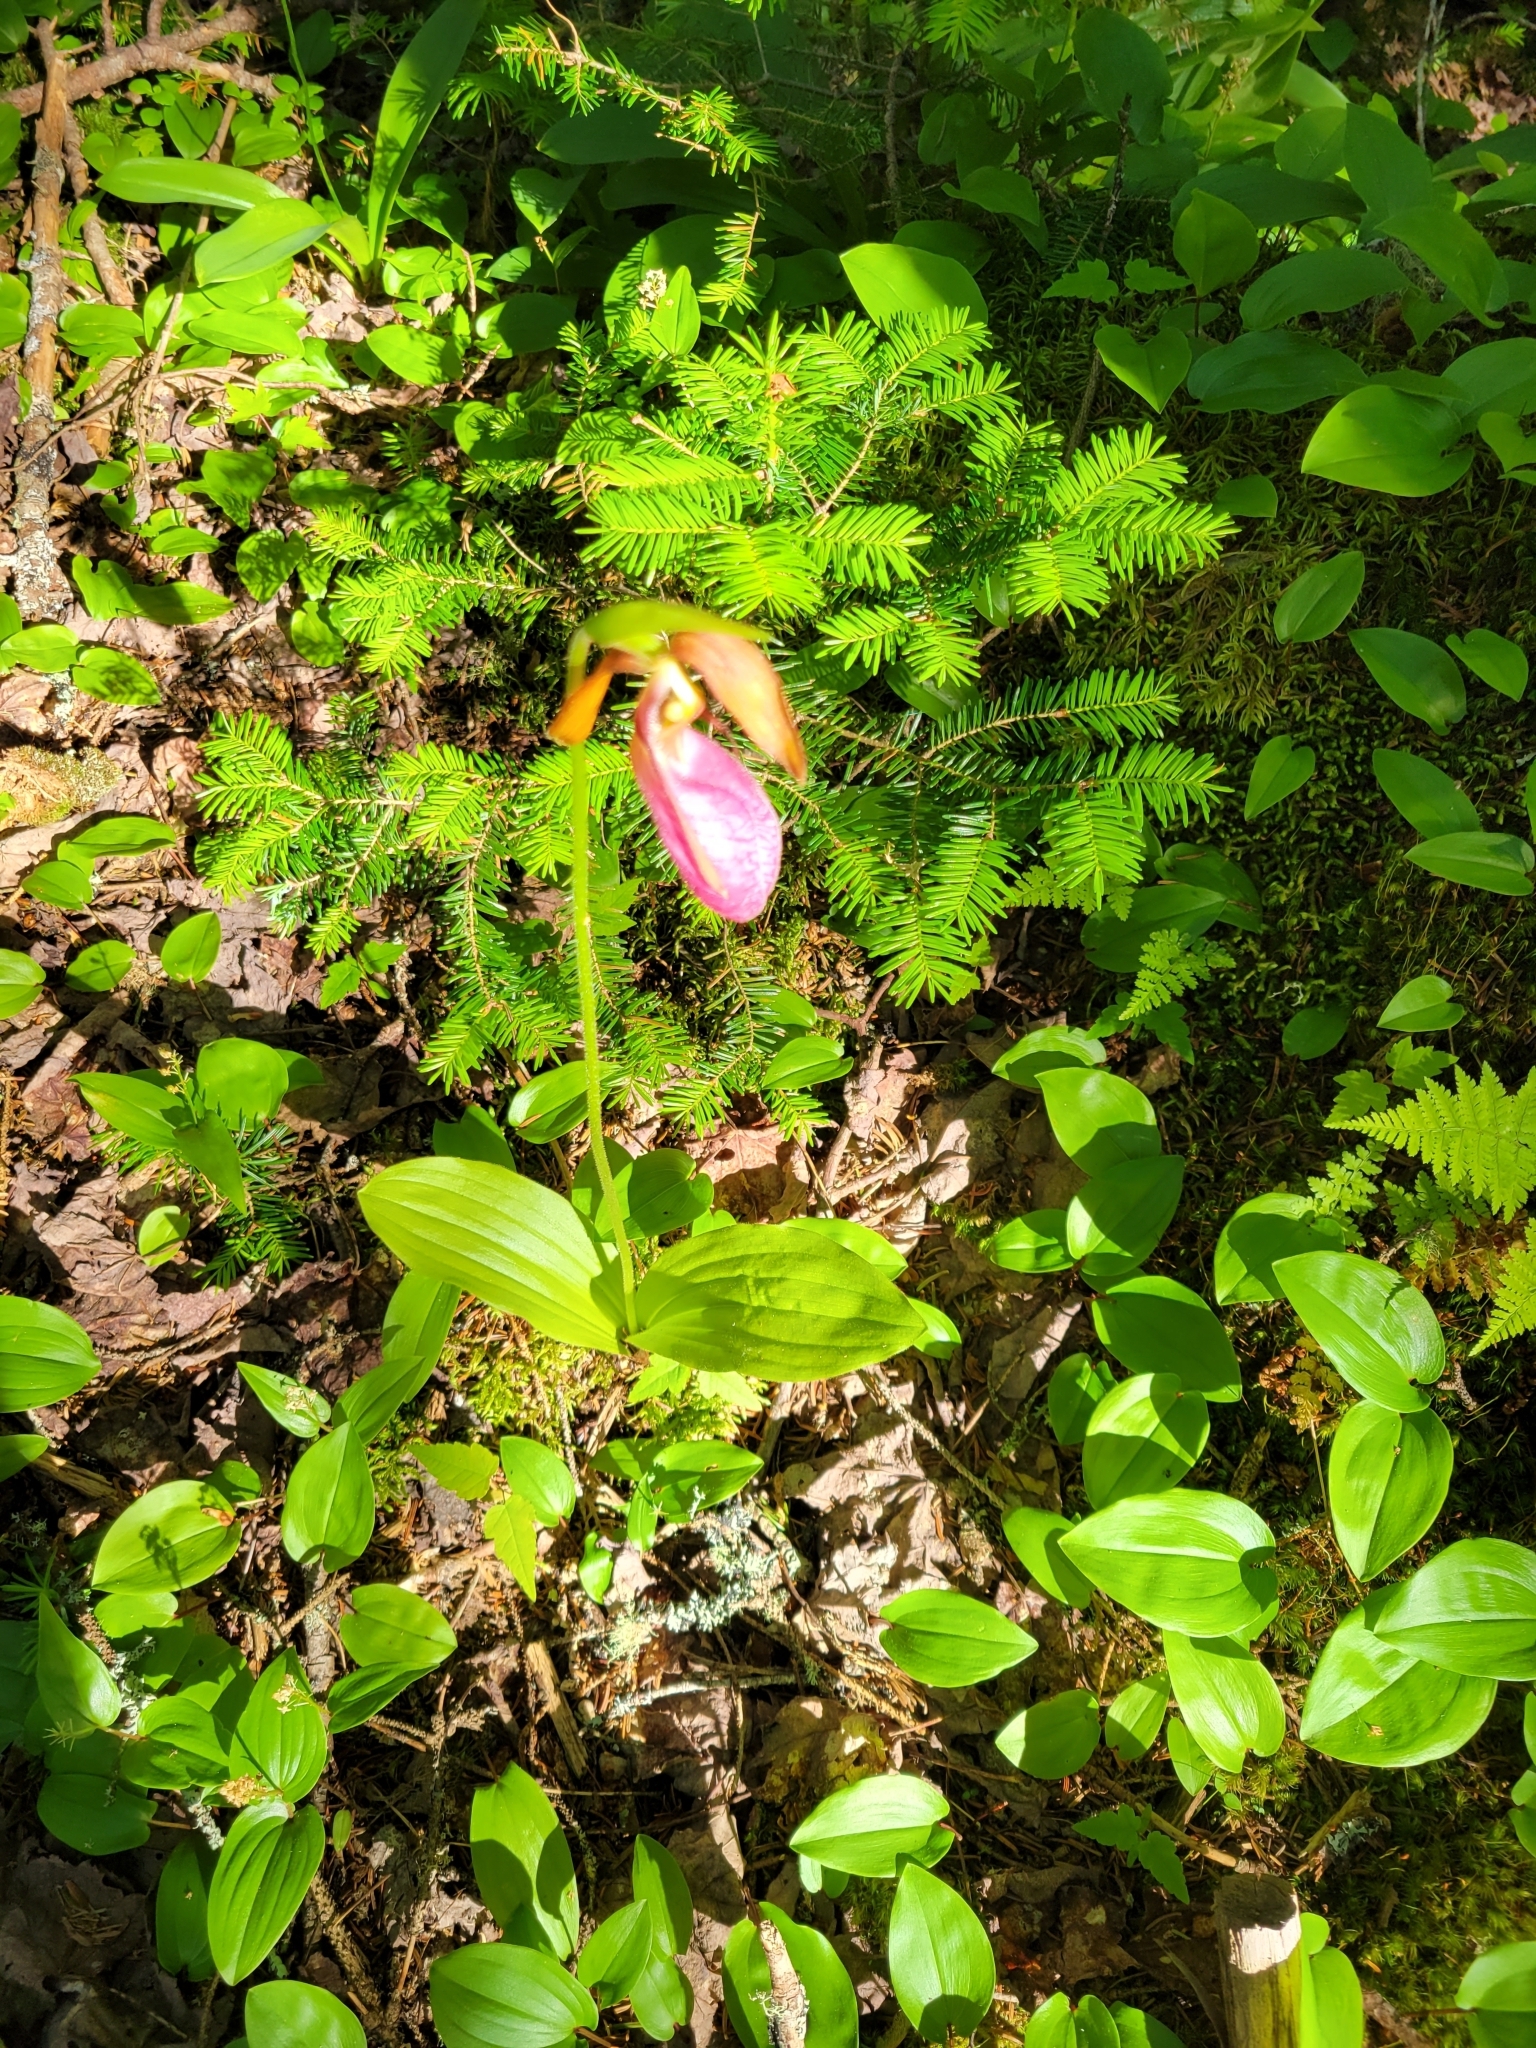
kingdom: Plantae
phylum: Tracheophyta
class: Liliopsida
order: Asparagales
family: Orchidaceae
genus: Cypripedium
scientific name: Cypripedium acaule
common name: Pink lady's-slipper
